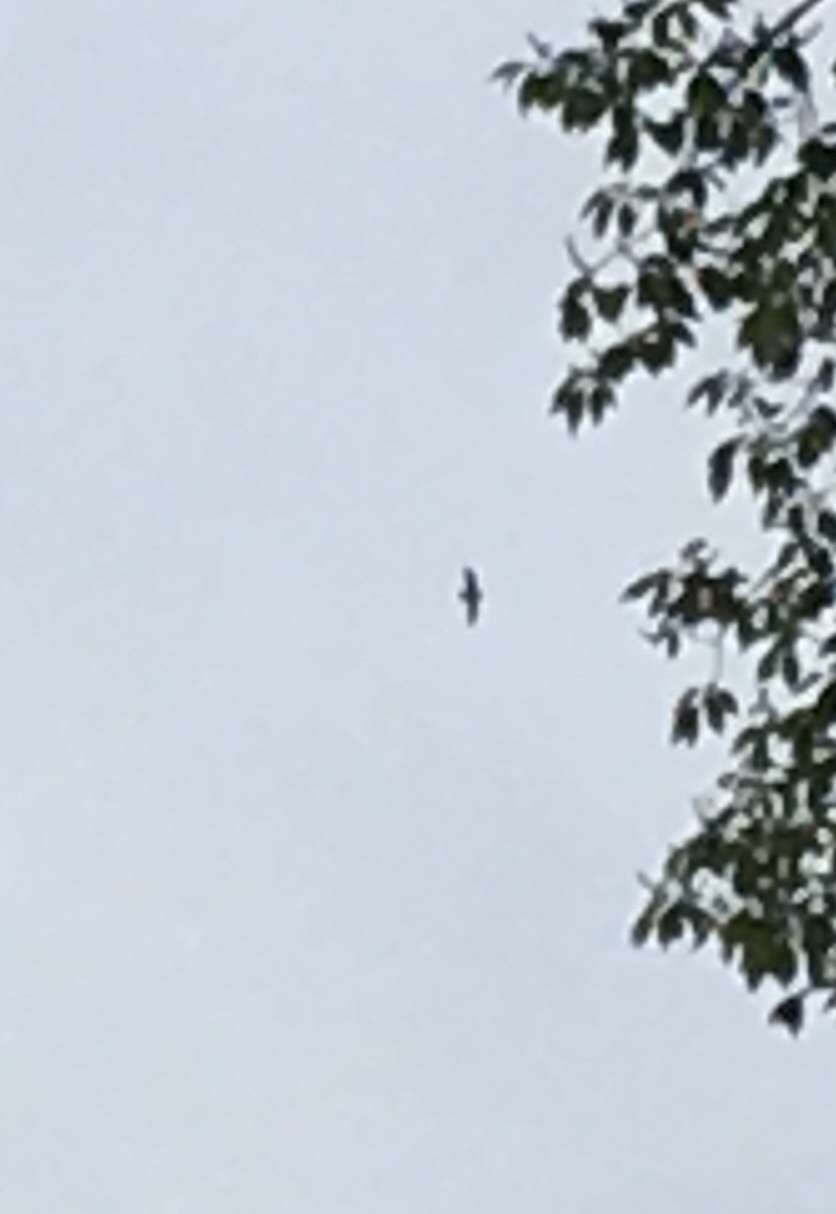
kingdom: Animalia
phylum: Chordata
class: Aves
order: Apodiformes
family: Apodidae
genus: Chaetura
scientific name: Chaetura pelagica
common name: Chimney swift
